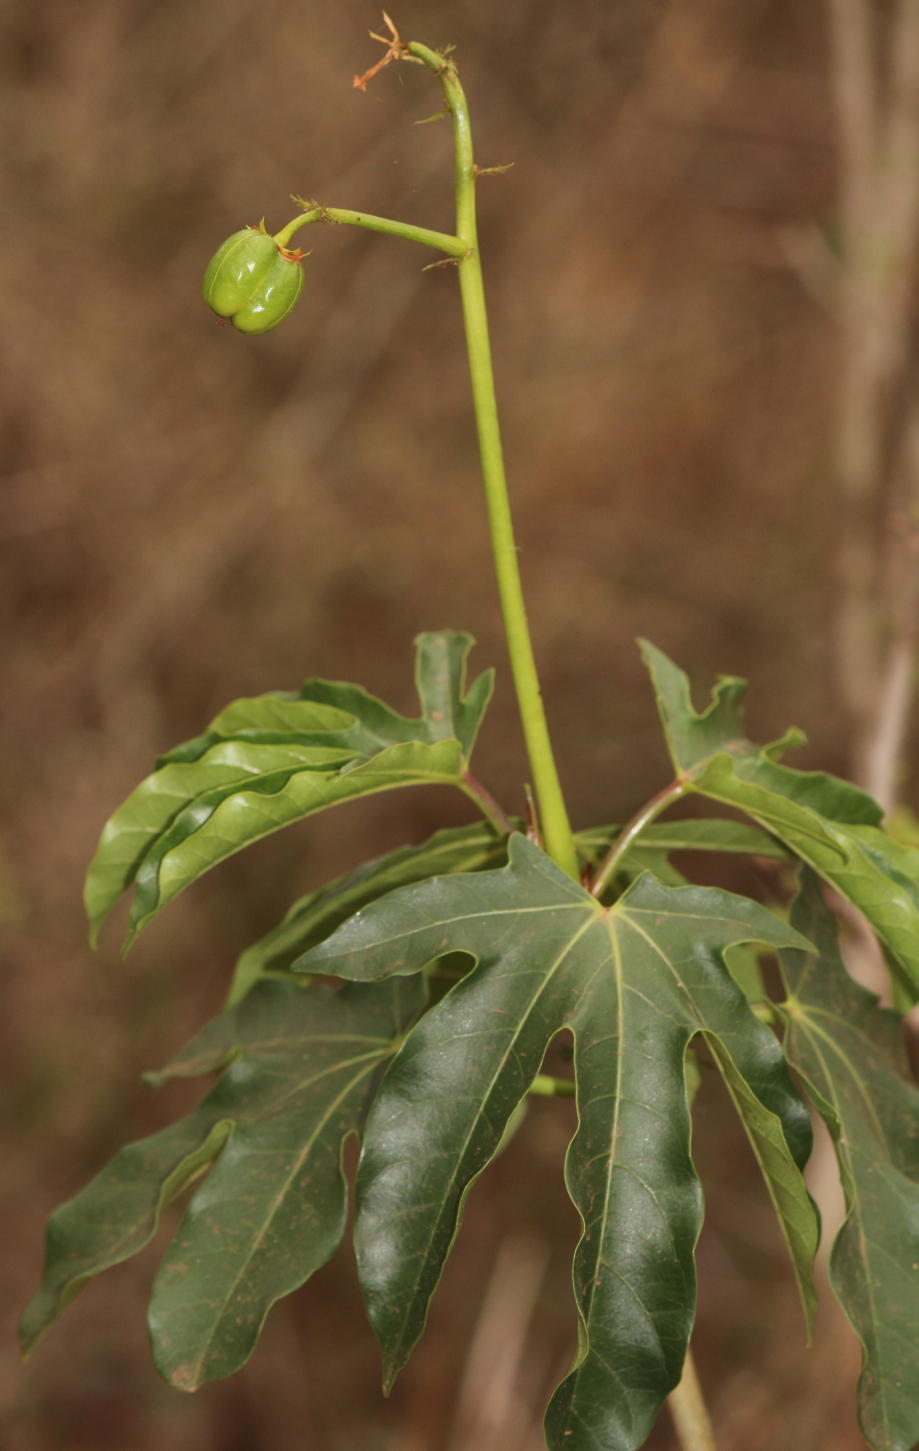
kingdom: Plantae
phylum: Tracheophyta
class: Magnoliopsida
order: Malpighiales
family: Euphorbiaceae
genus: Jatropha
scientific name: Jatropha variifolia
